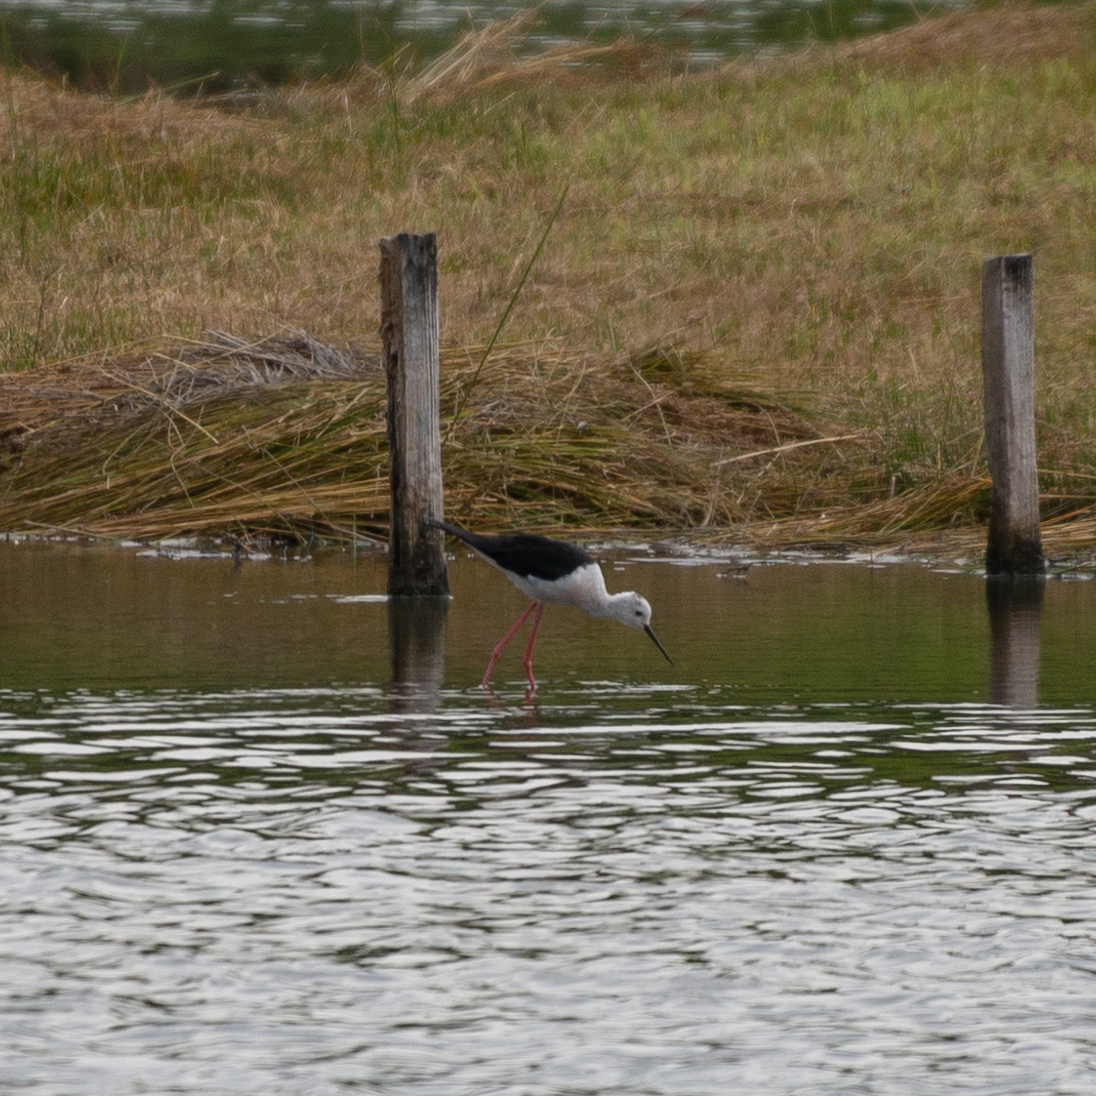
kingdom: Animalia
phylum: Chordata
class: Aves
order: Charadriiformes
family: Recurvirostridae
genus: Himantopus
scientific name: Himantopus himantopus
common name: Black-winged stilt
